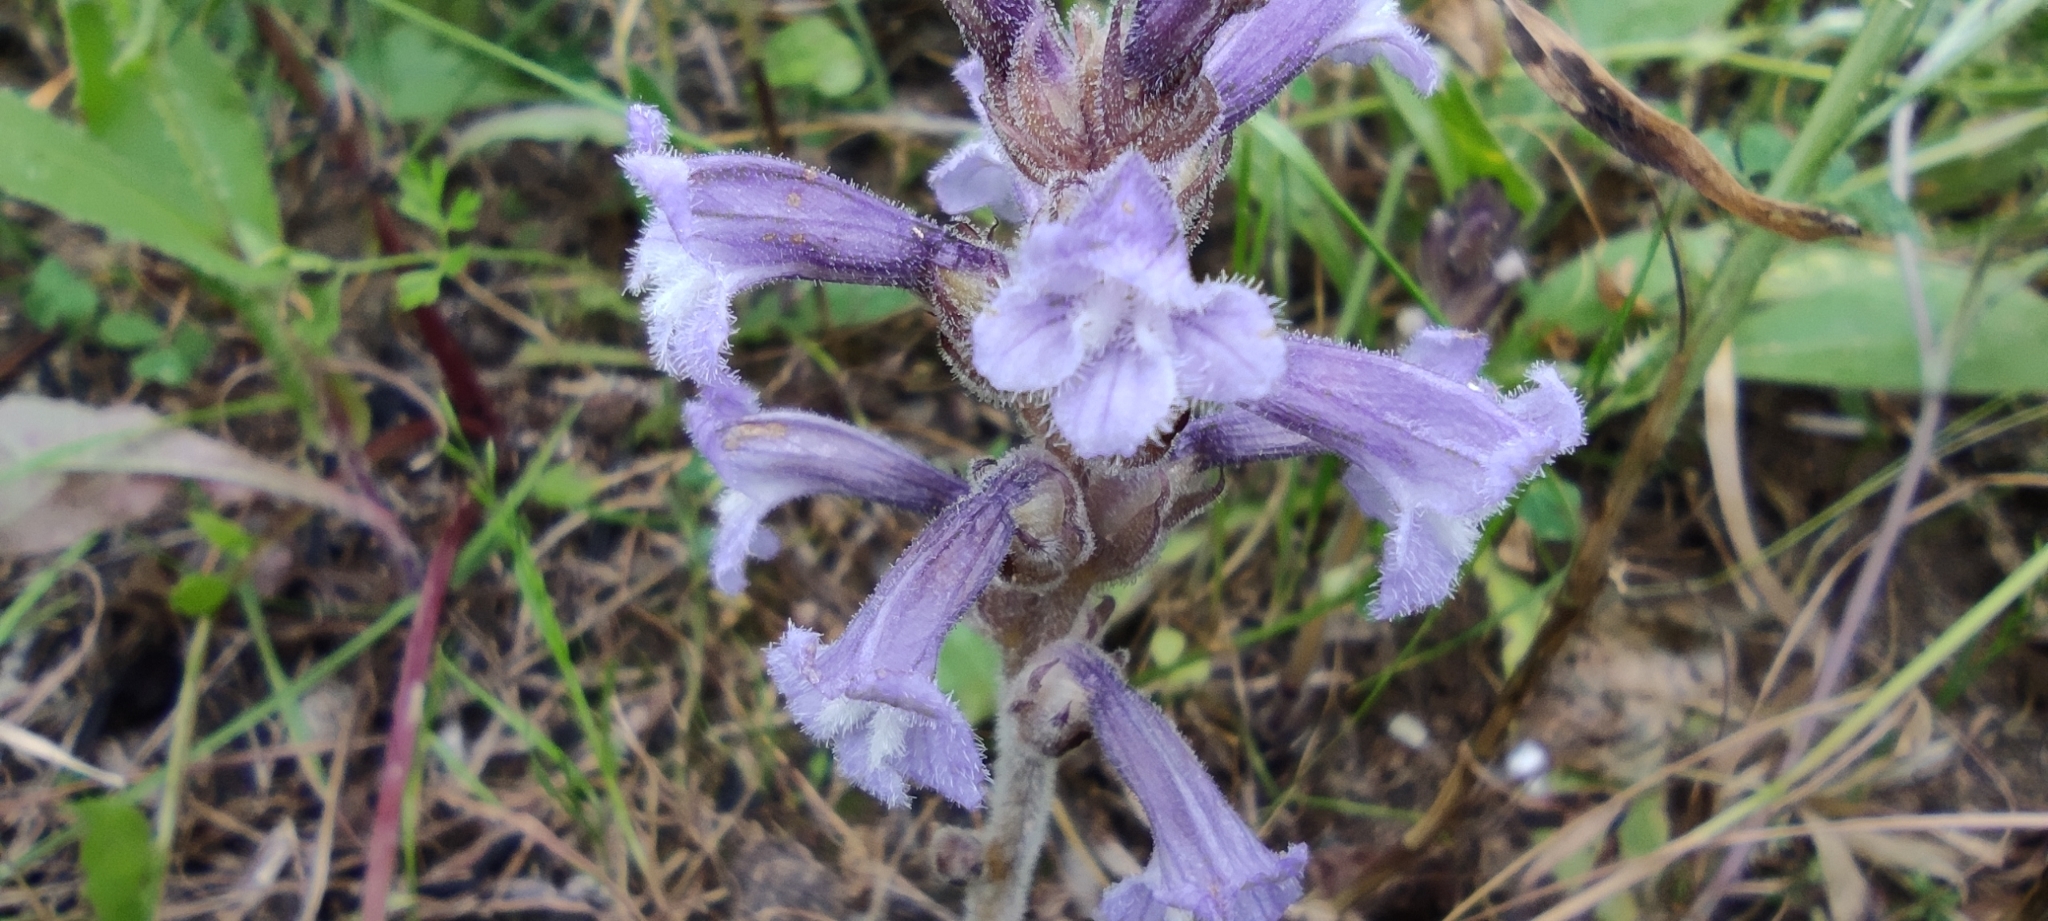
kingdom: Plantae
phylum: Tracheophyta
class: Magnoliopsida
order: Lamiales
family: Orobanchaceae
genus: Phelipanche
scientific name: Phelipanche mutelii
